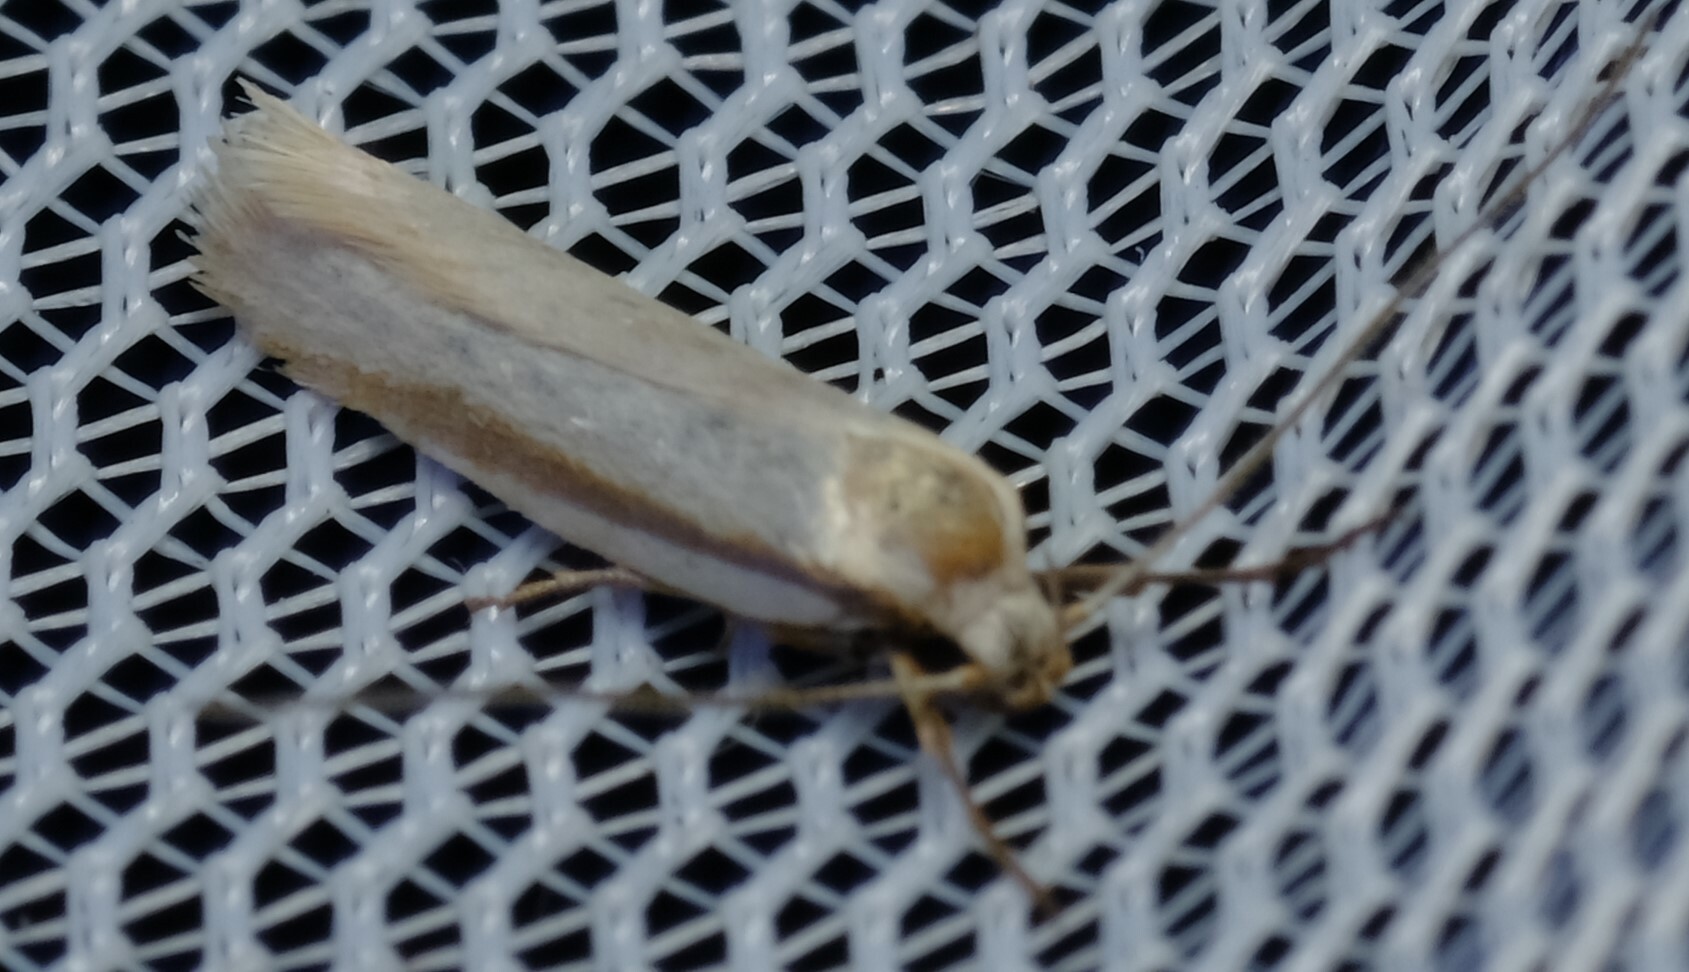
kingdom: Animalia
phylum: Arthropoda
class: Insecta
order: Lepidoptera
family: Xyloryctidae
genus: Xylorycta
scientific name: Xylorycta strigata
